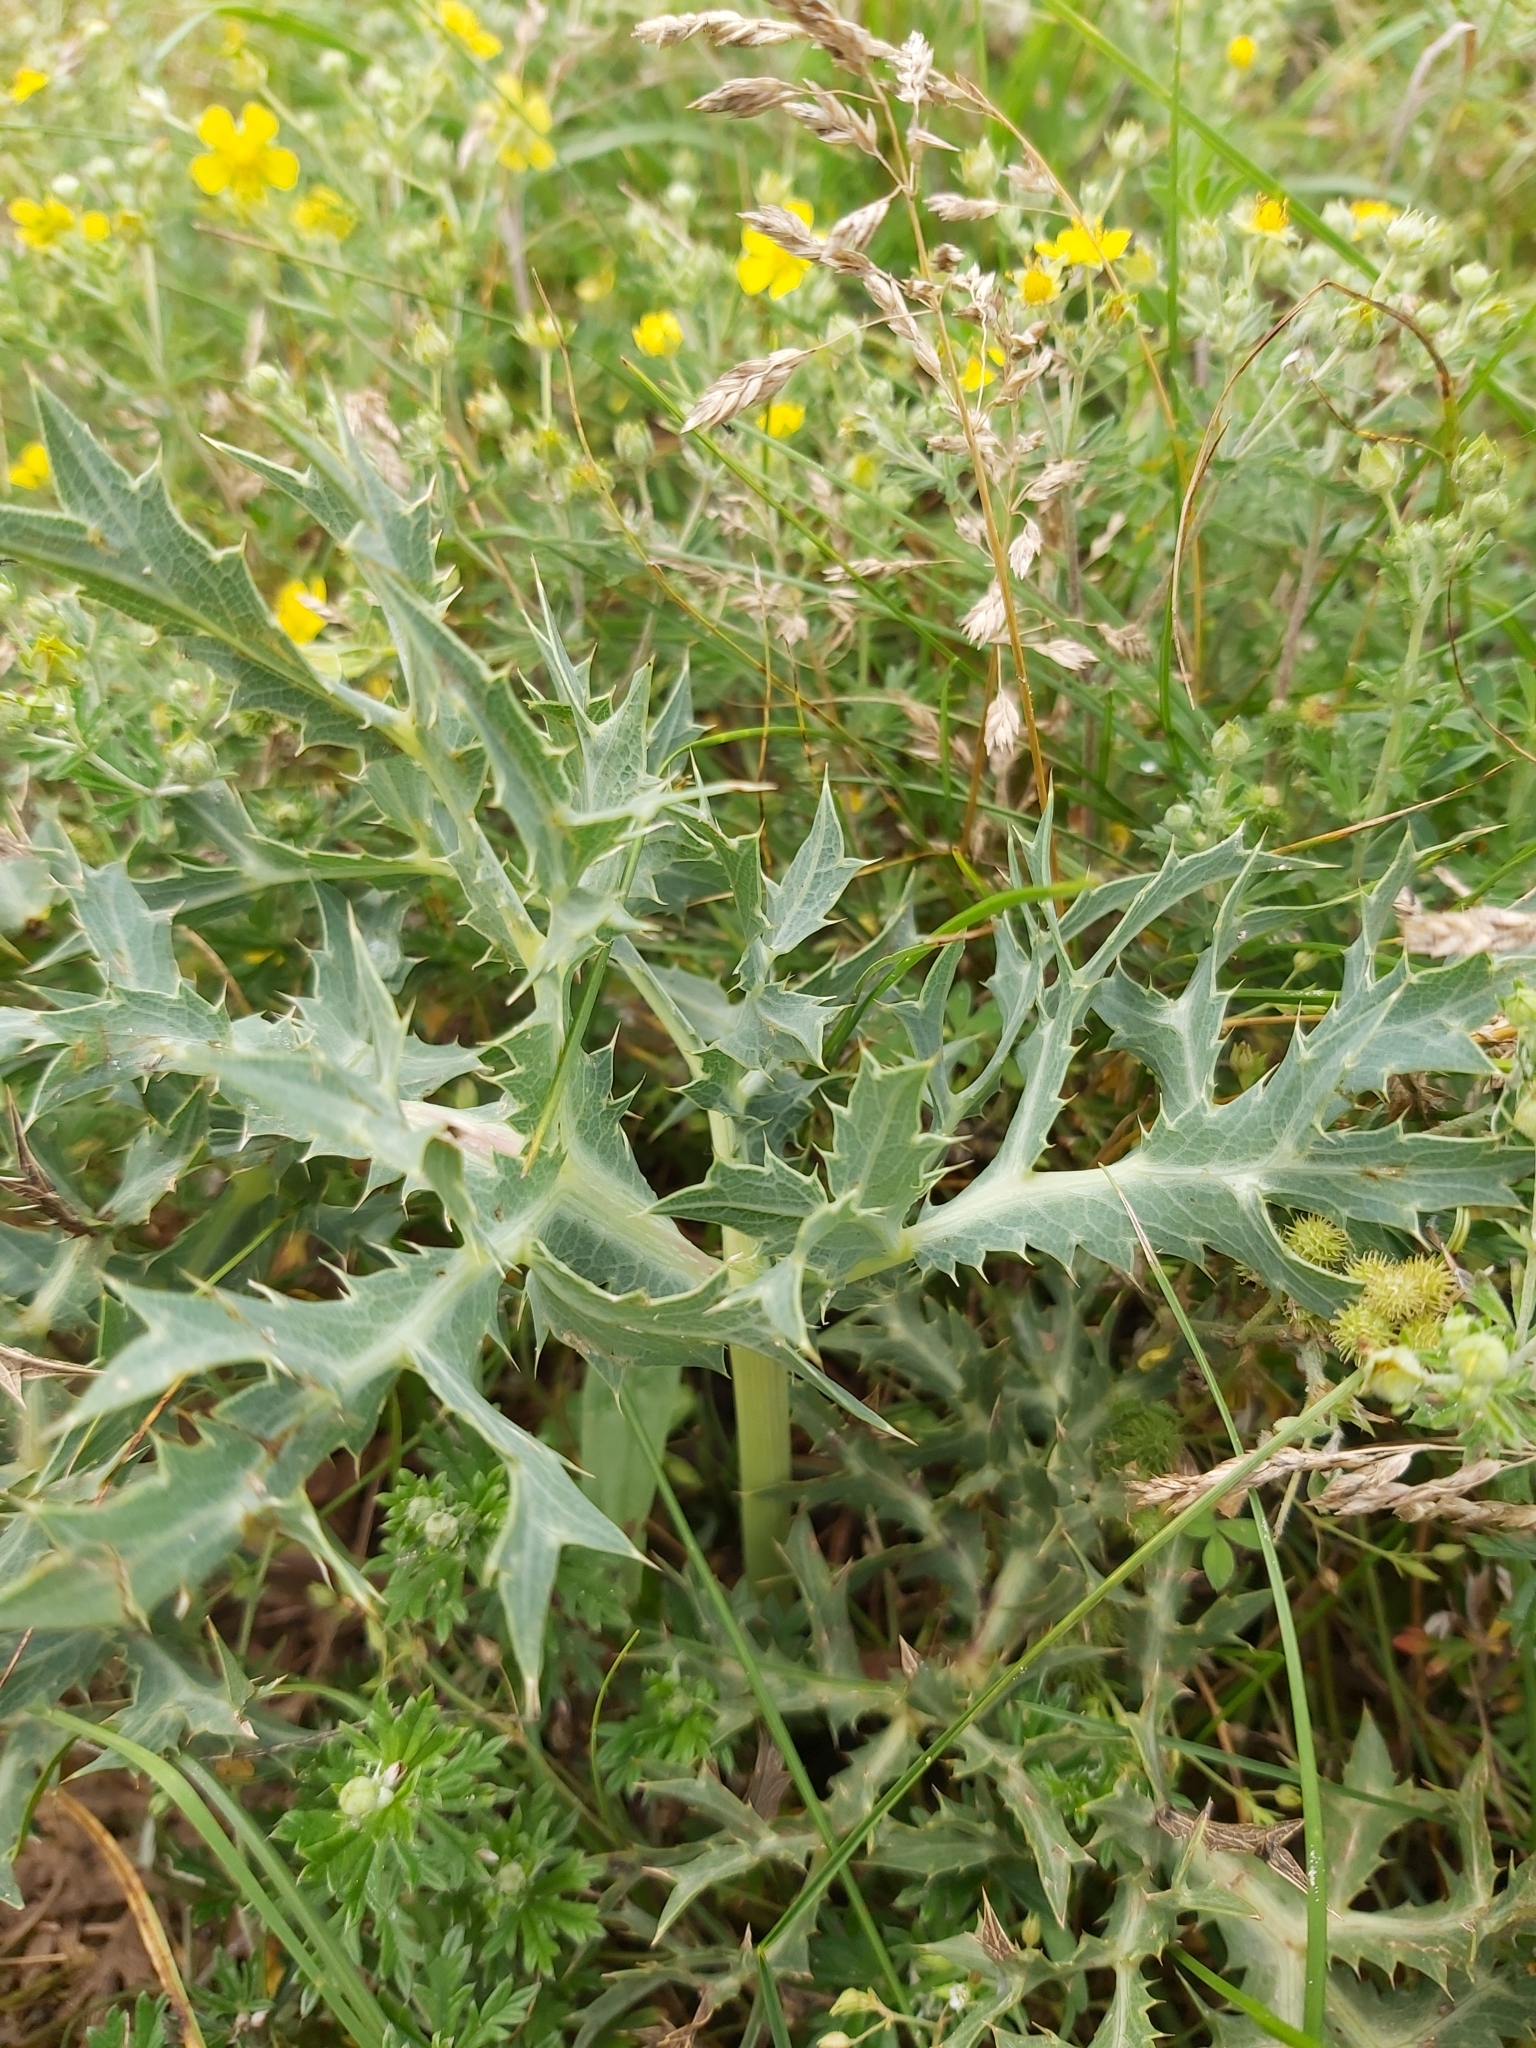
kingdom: Plantae
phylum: Tracheophyta
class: Magnoliopsida
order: Apiales
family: Apiaceae
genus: Eryngium
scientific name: Eryngium campestre
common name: Field eryngo
